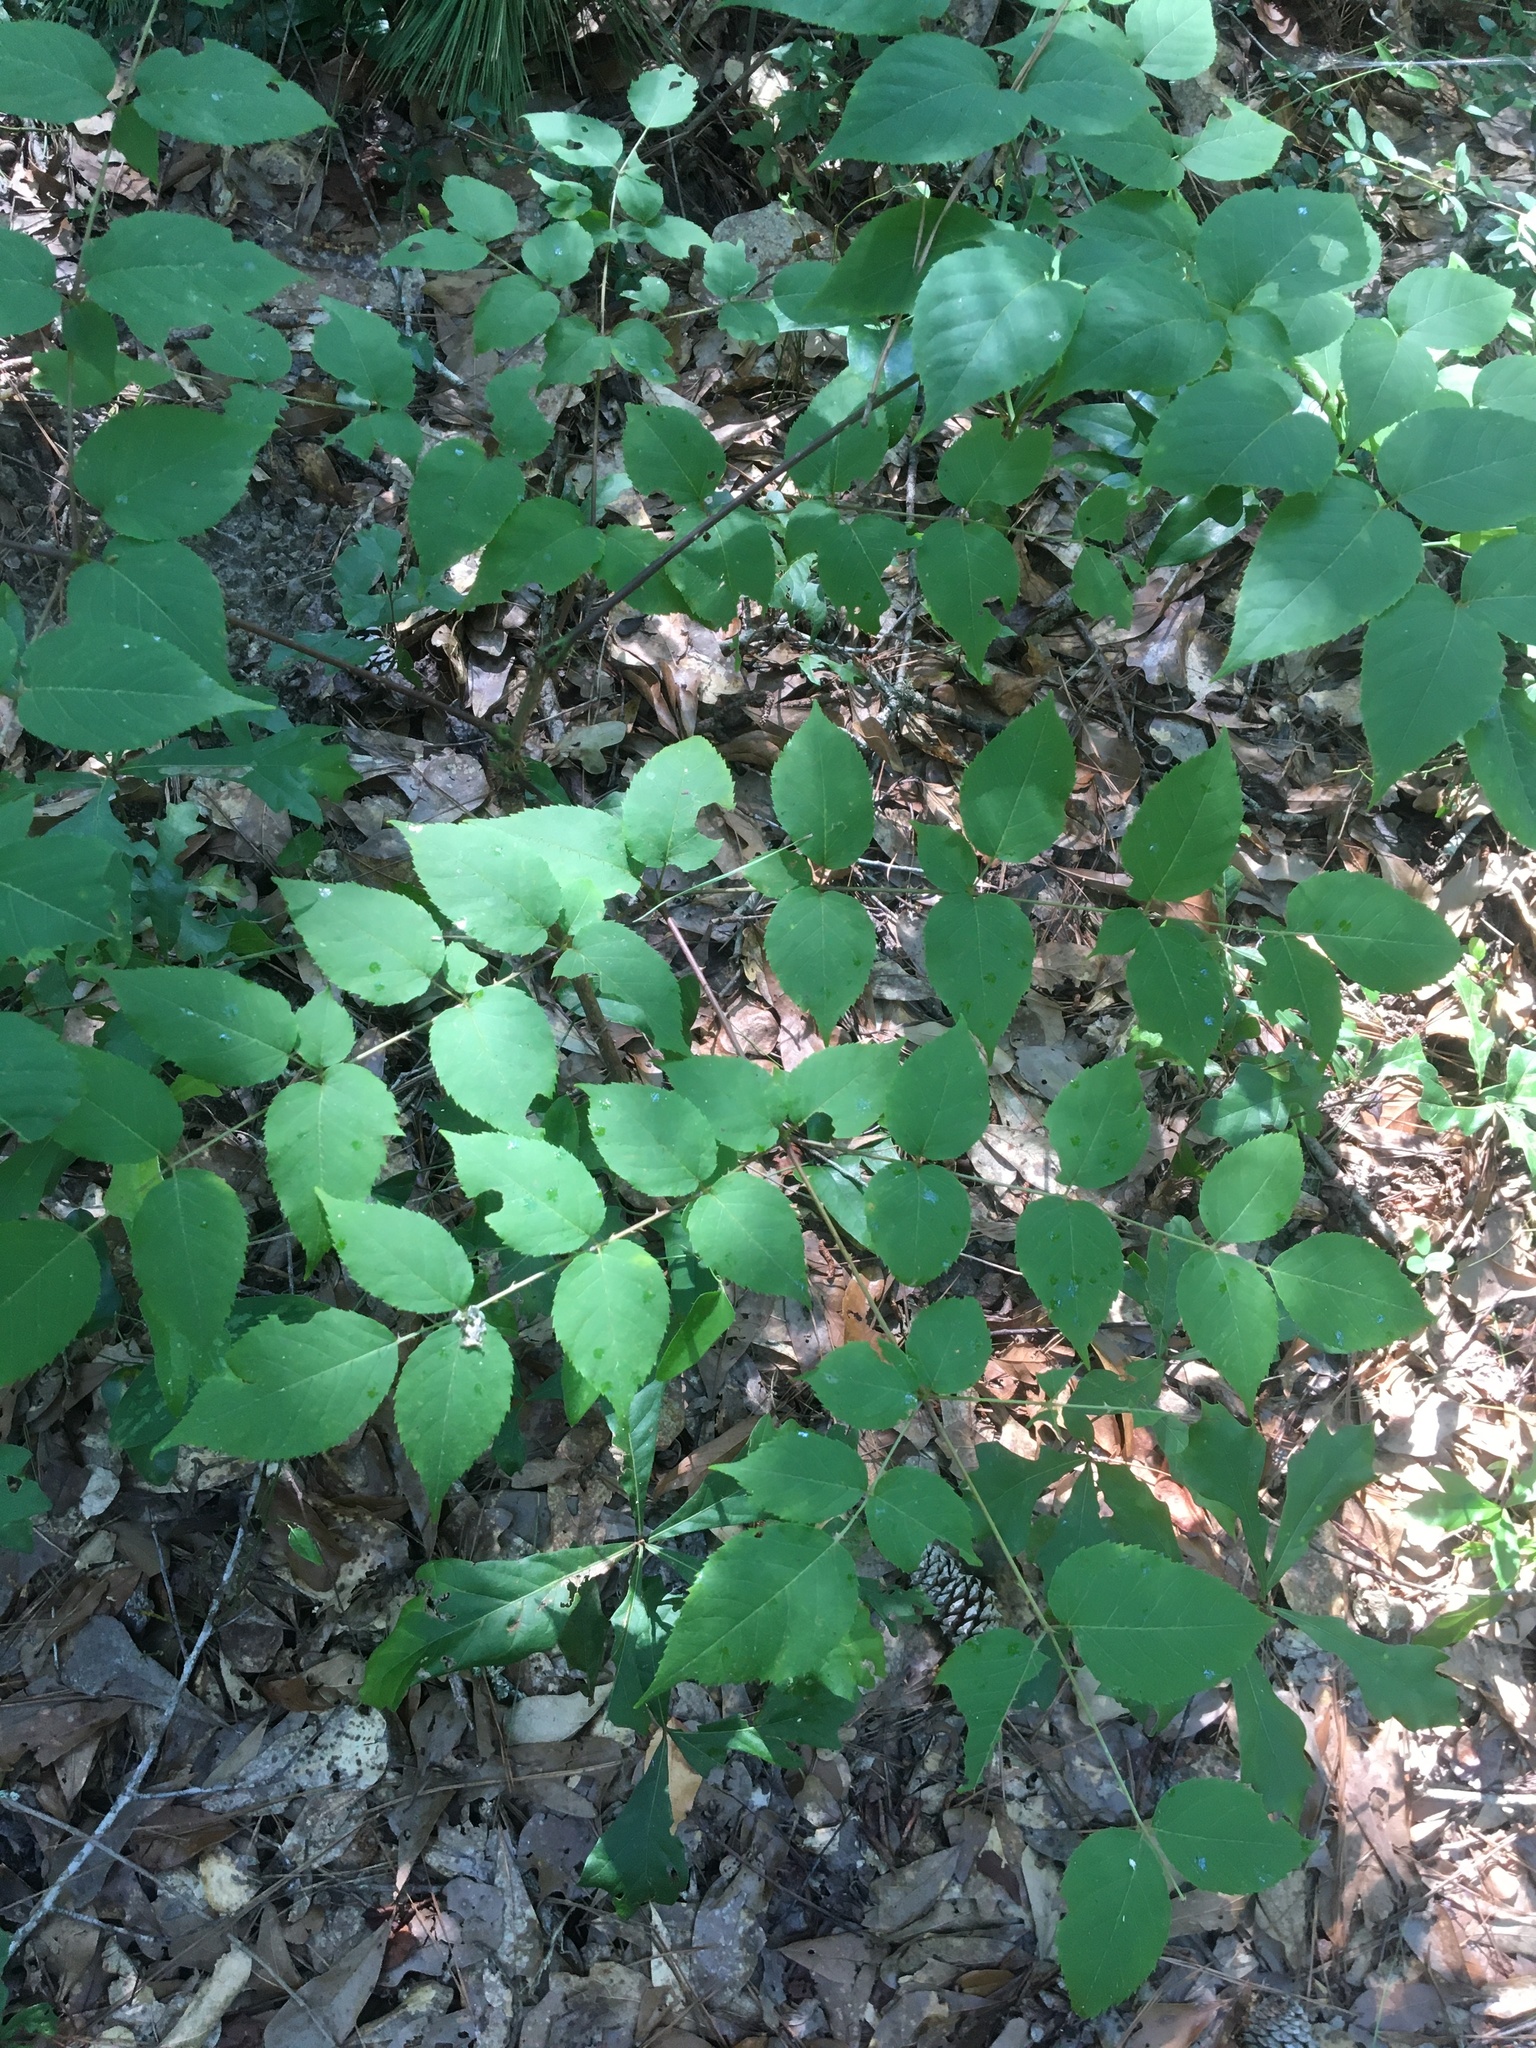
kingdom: Plantae
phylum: Tracheophyta
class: Magnoliopsida
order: Apiales
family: Araliaceae
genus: Aralia
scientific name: Aralia spinosa
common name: Hercules'-club
